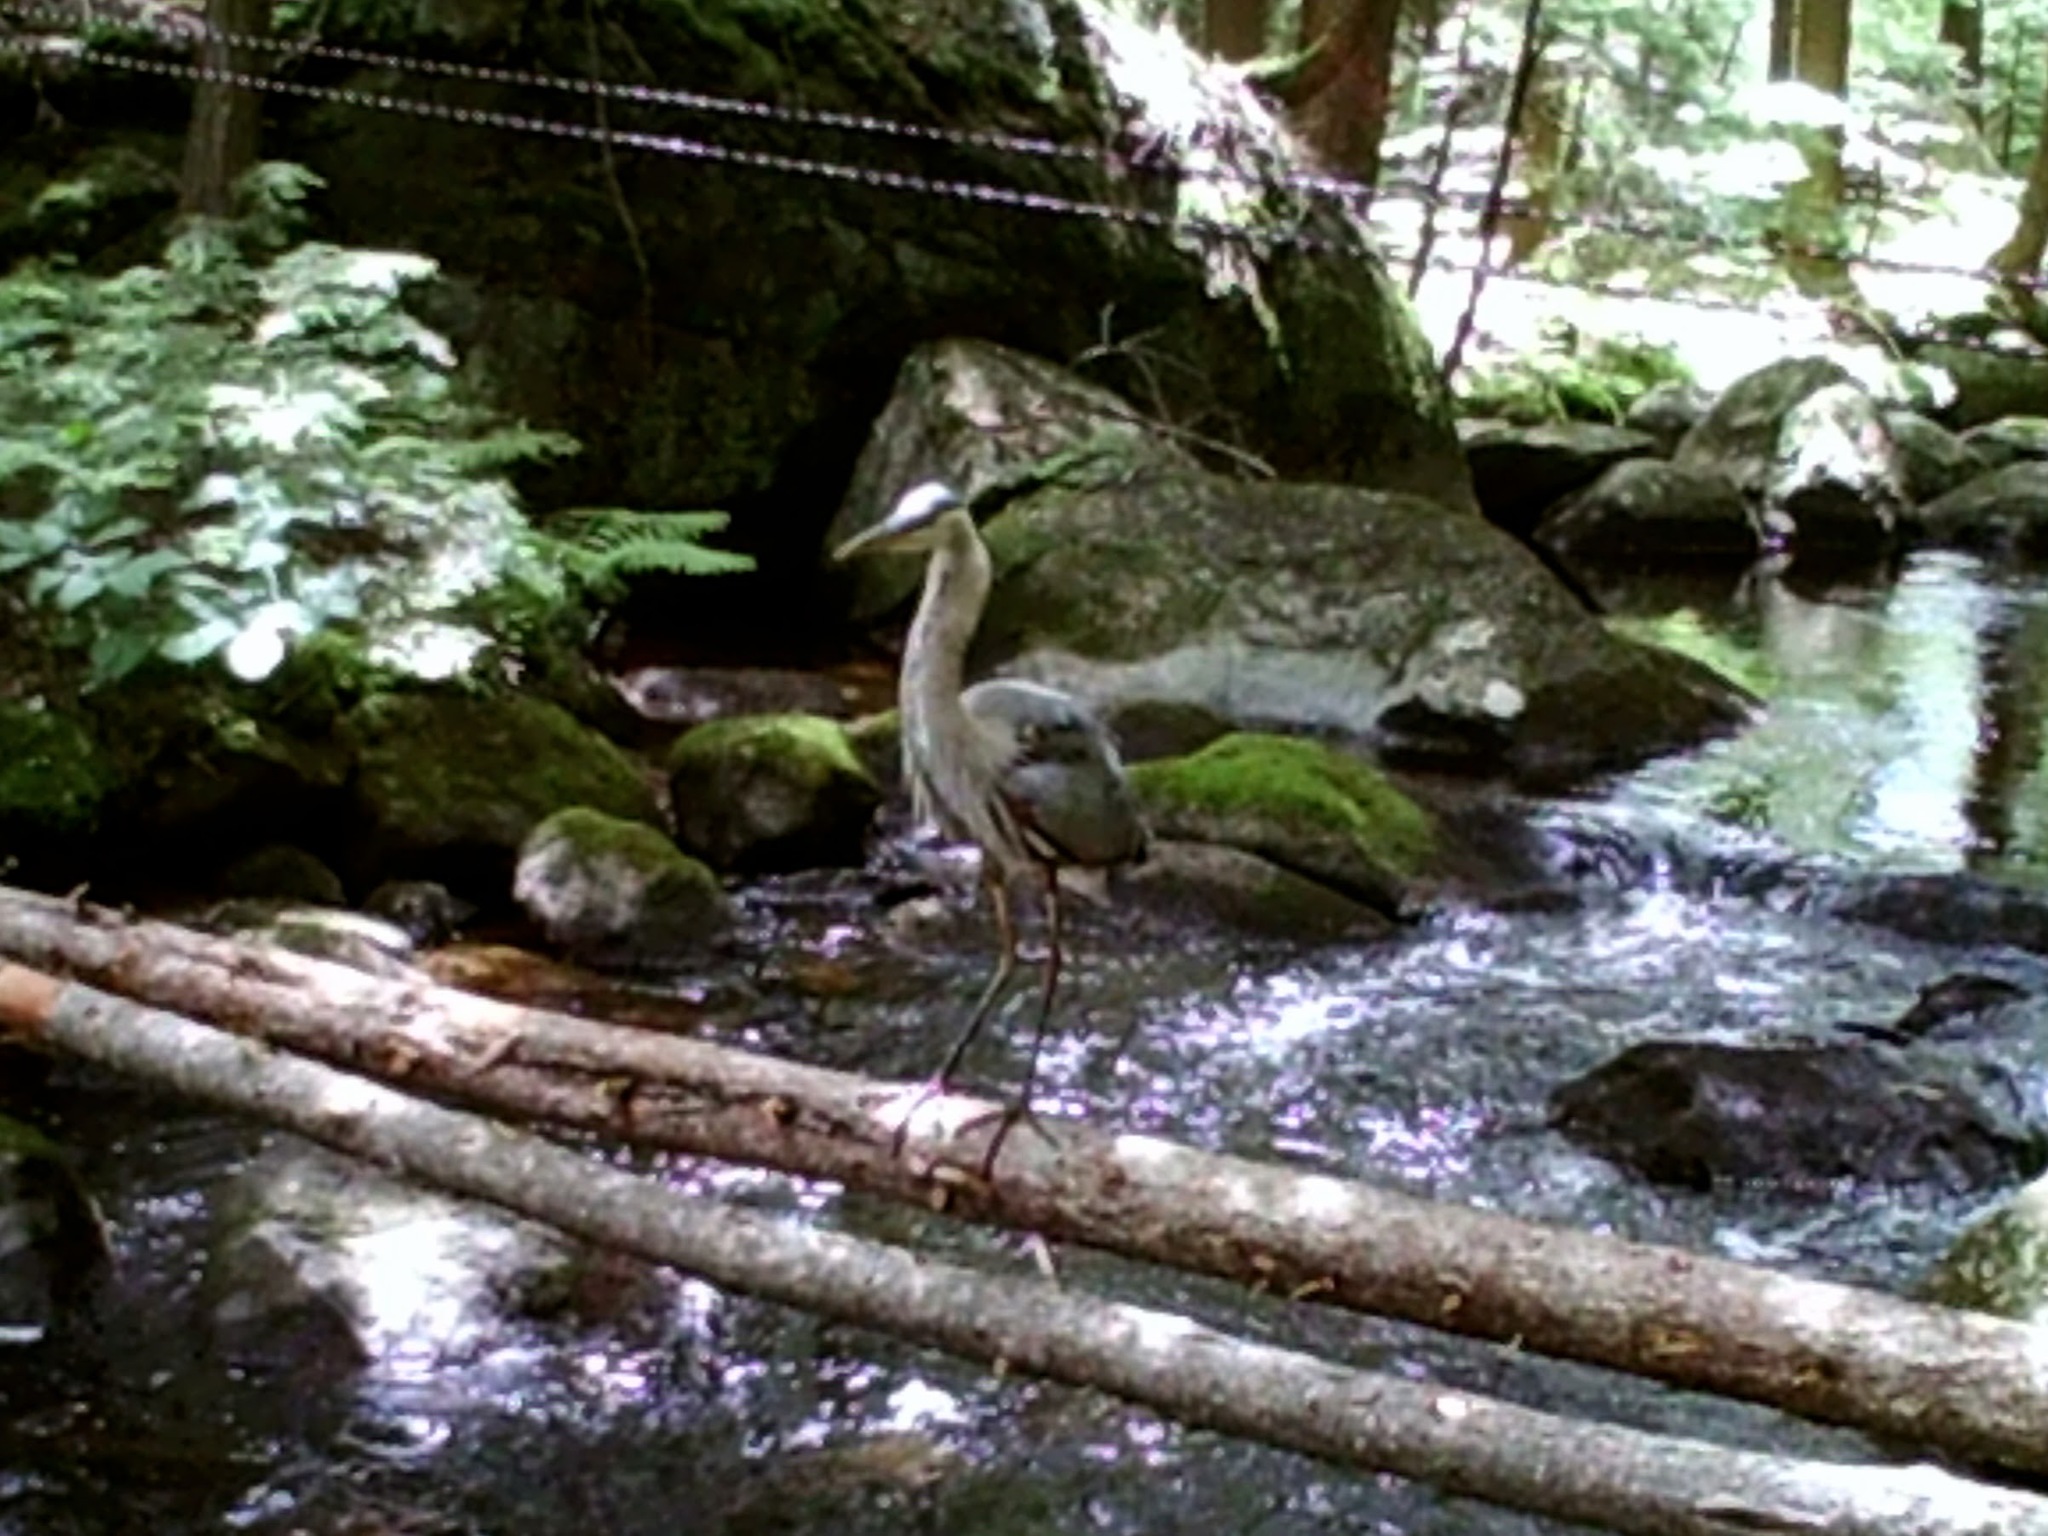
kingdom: Animalia
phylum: Chordata
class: Aves
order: Pelecaniformes
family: Ardeidae
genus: Ardea
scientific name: Ardea herodias
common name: Great blue heron
